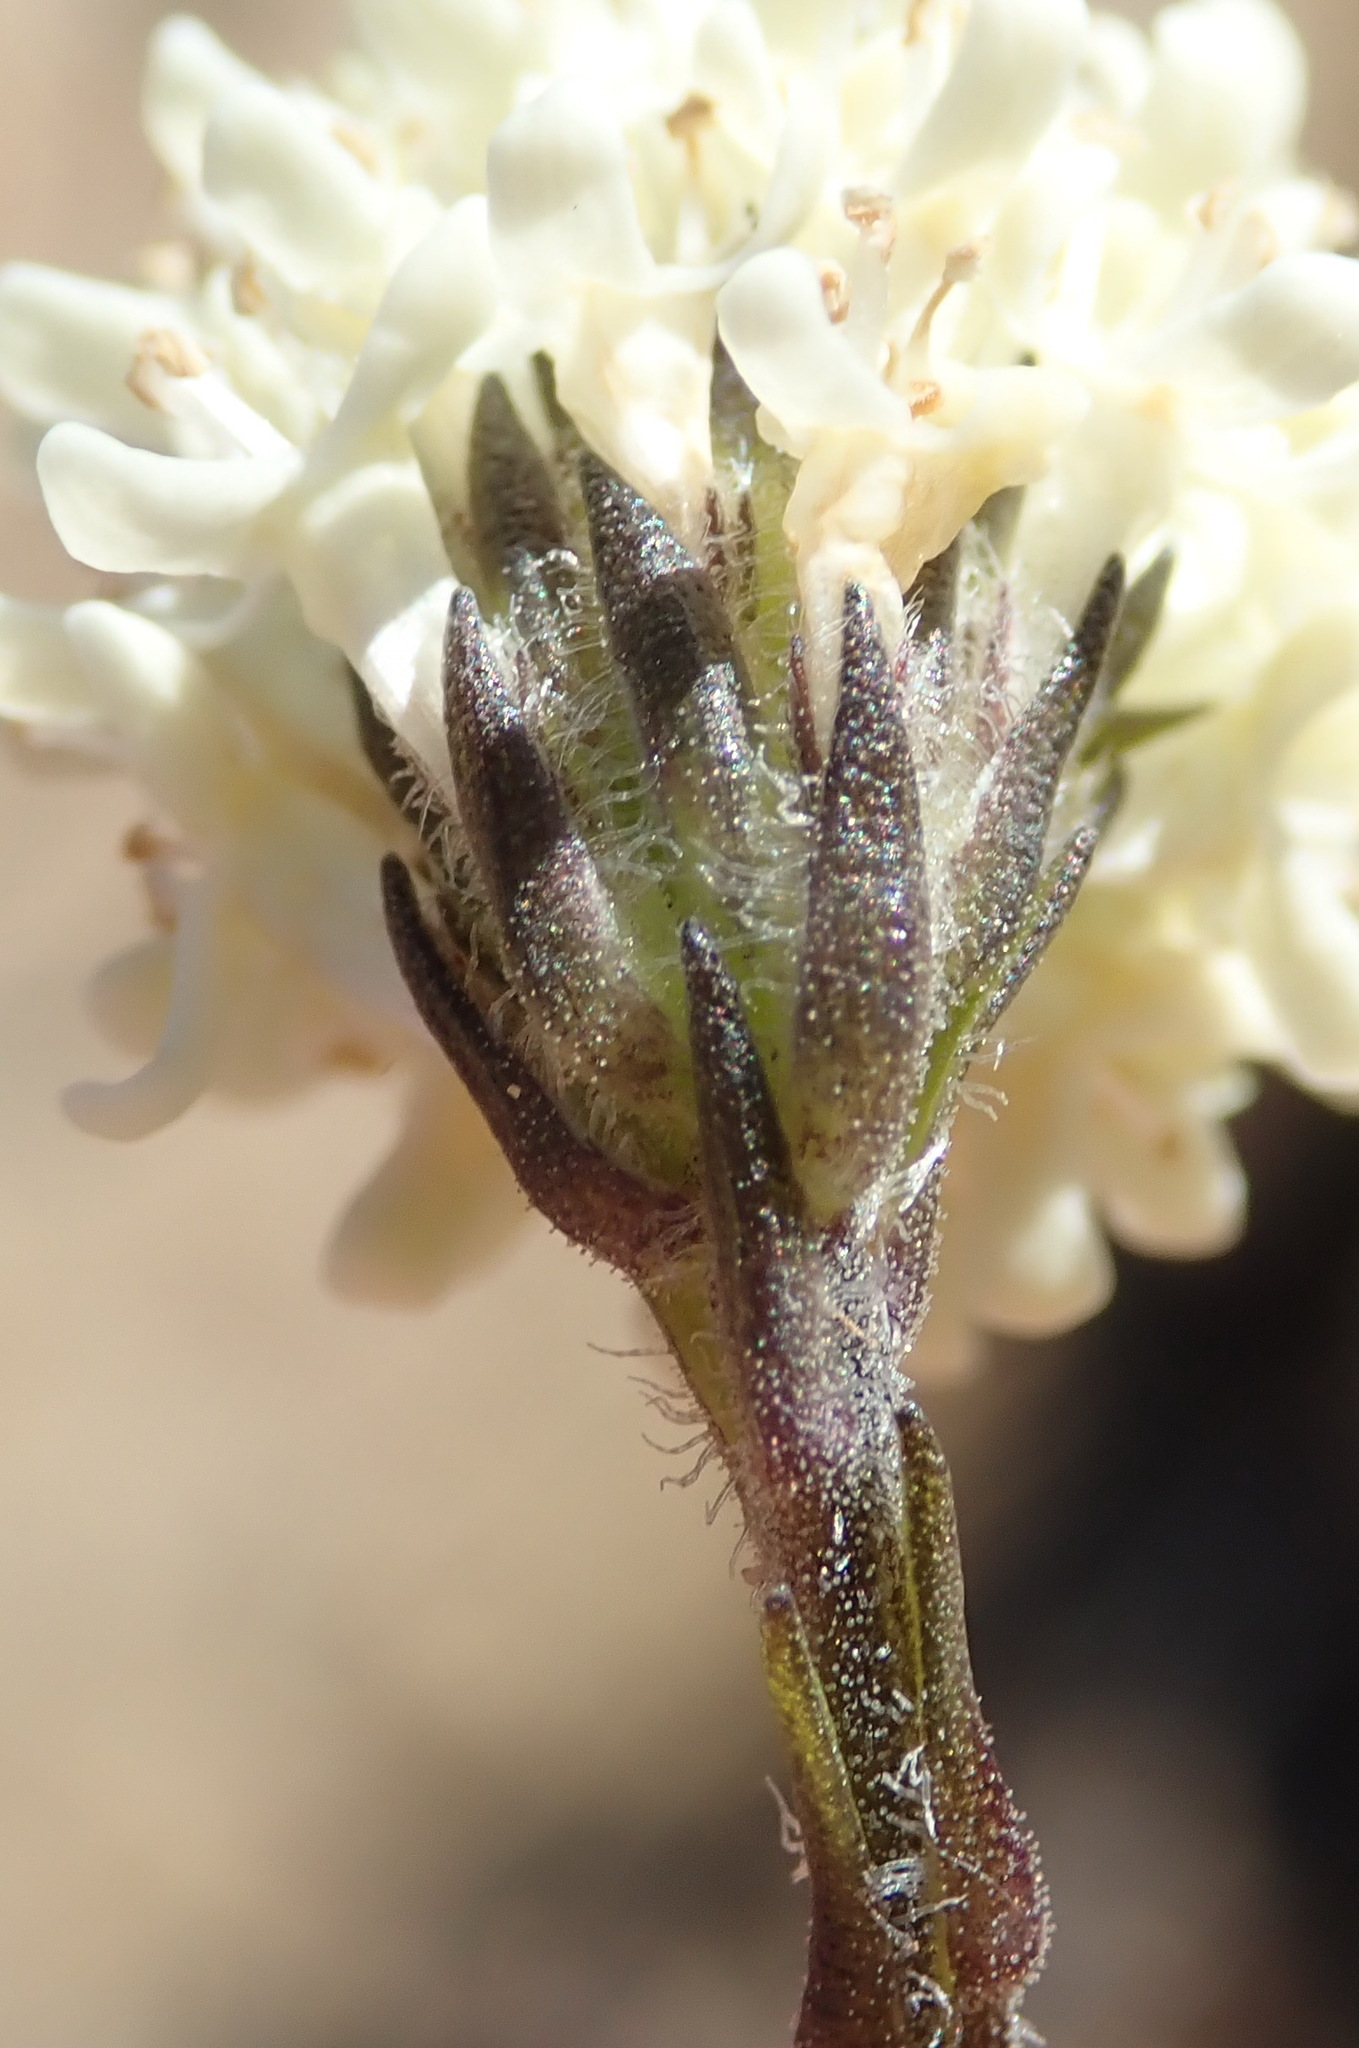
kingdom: Plantae
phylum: Tracheophyta
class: Magnoliopsida
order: Lamiales
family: Scrophulariaceae
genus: Phyllopodium
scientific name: Phyllopodium elegans
